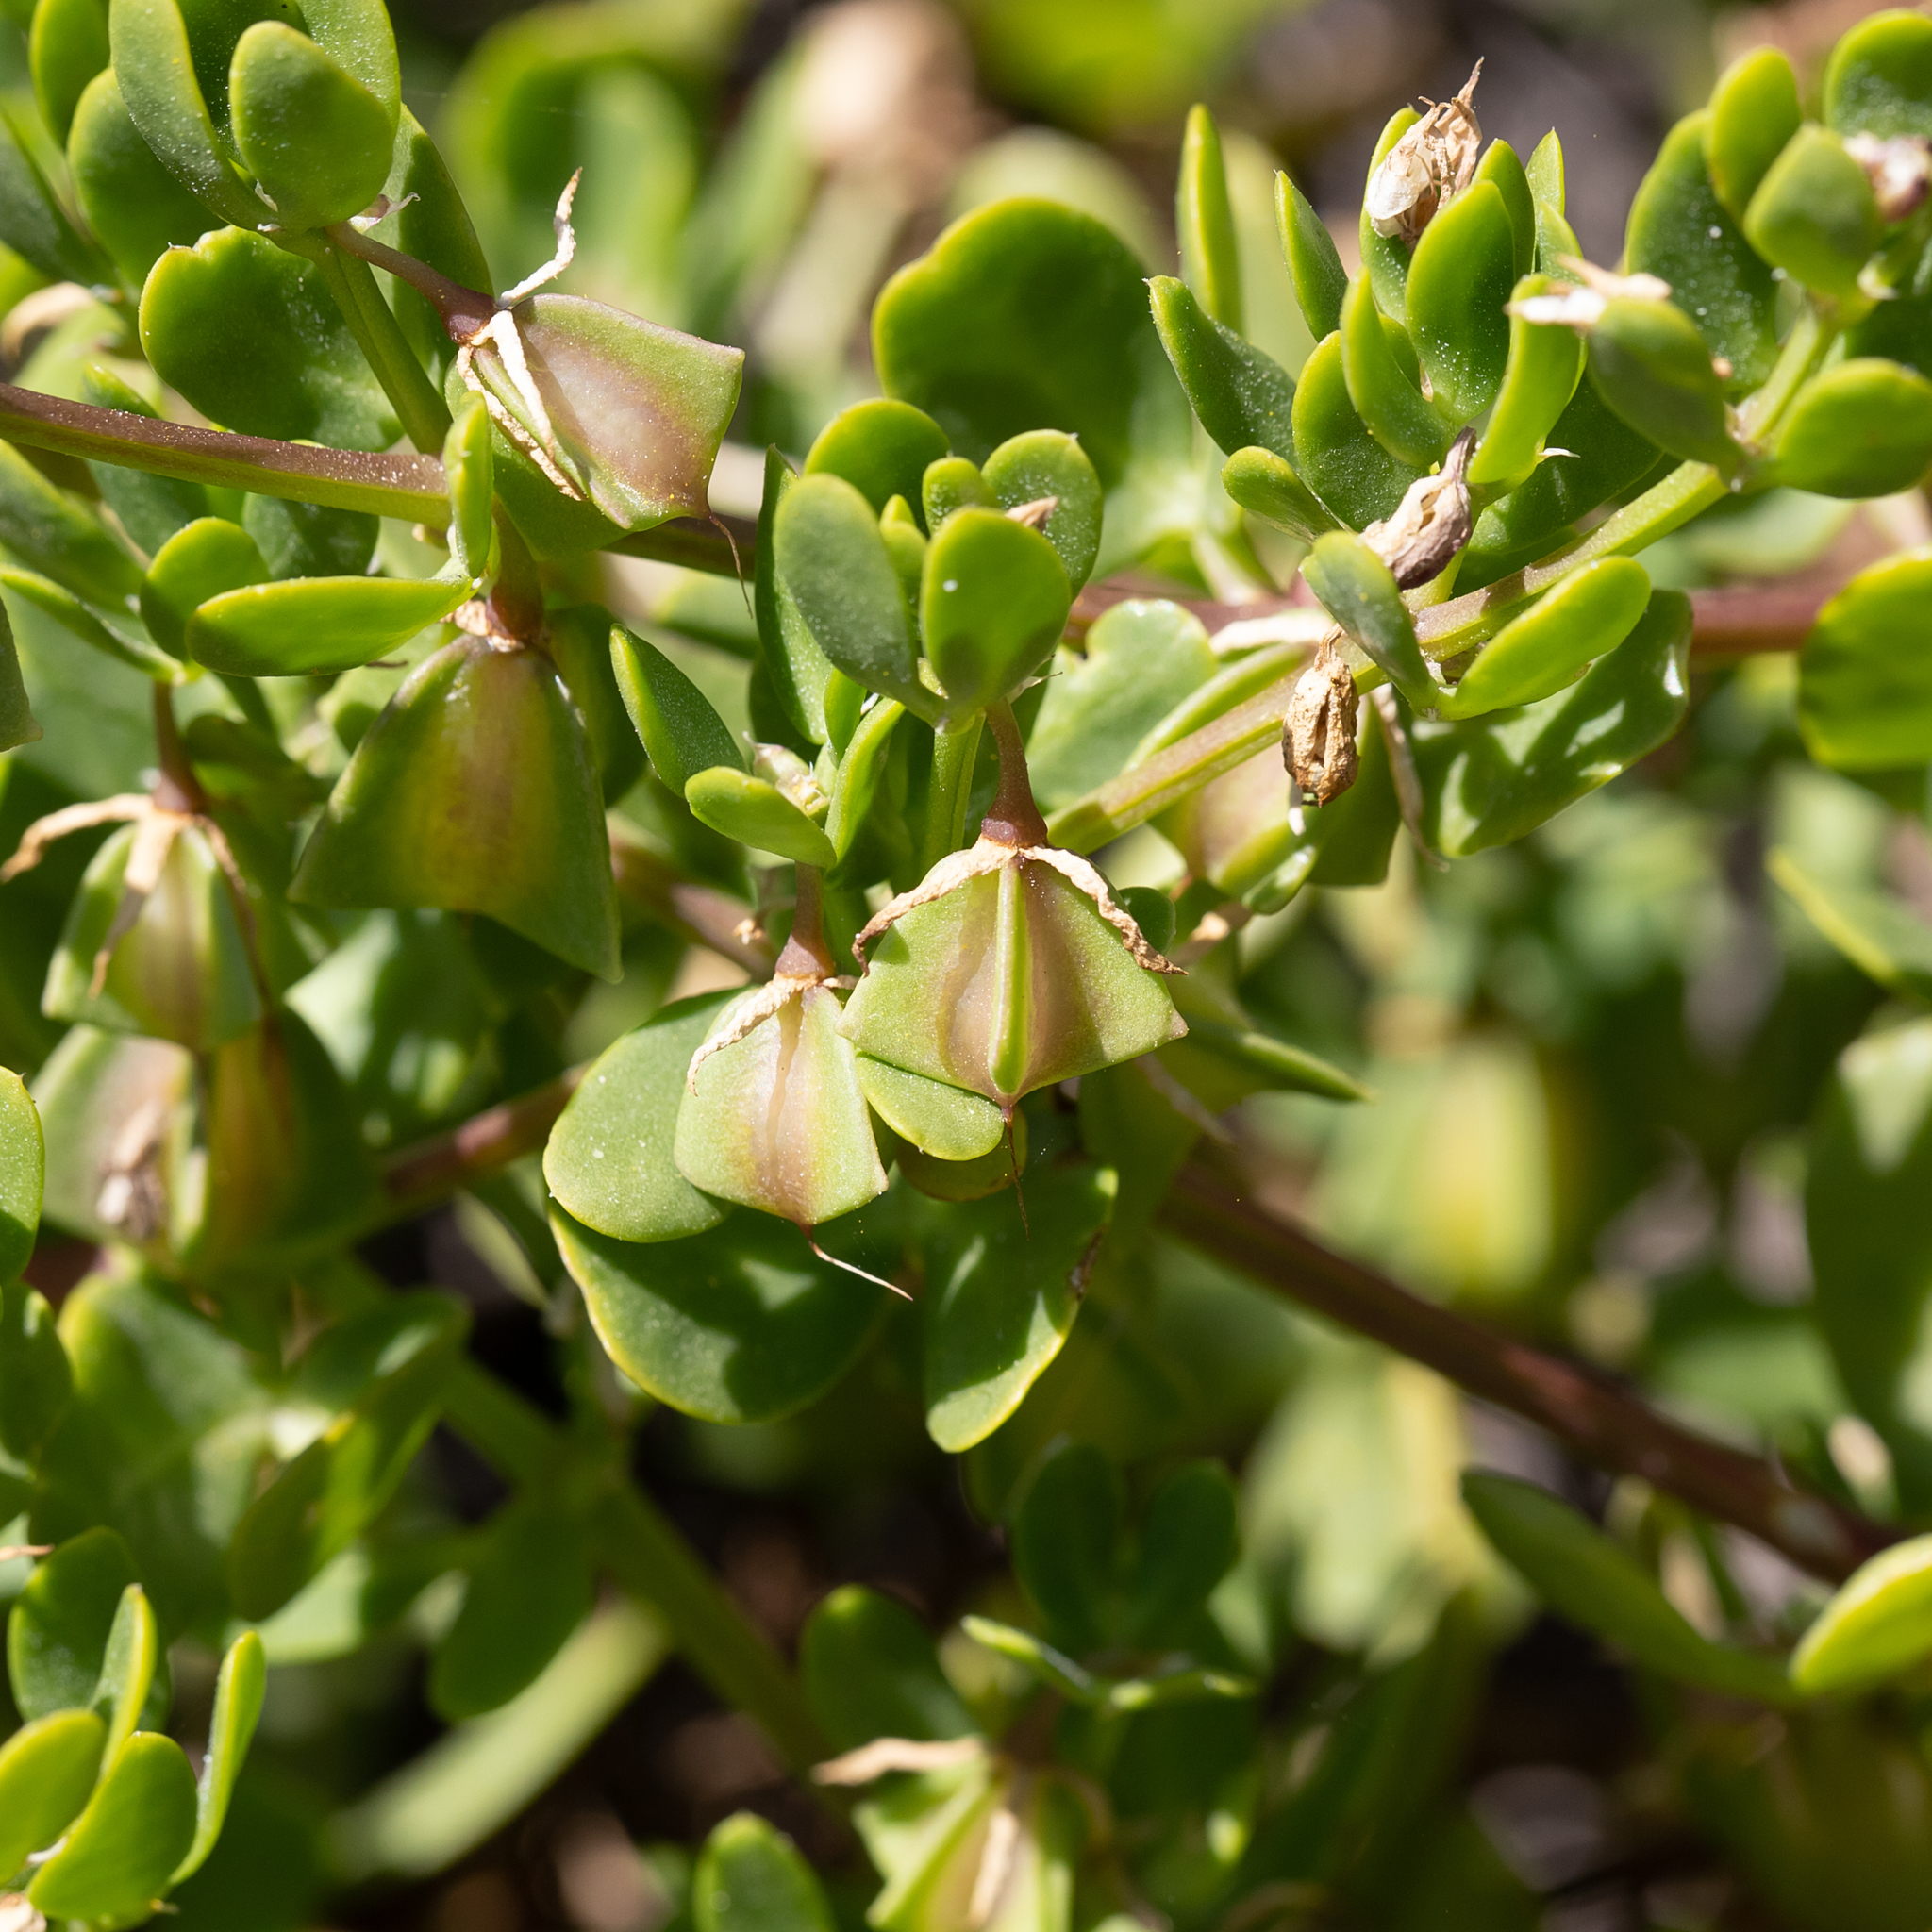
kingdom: Plantae
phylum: Tracheophyta
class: Magnoliopsida
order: Zygophyllales
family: Zygophyllaceae
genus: Roepera
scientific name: Roepera billardieri
